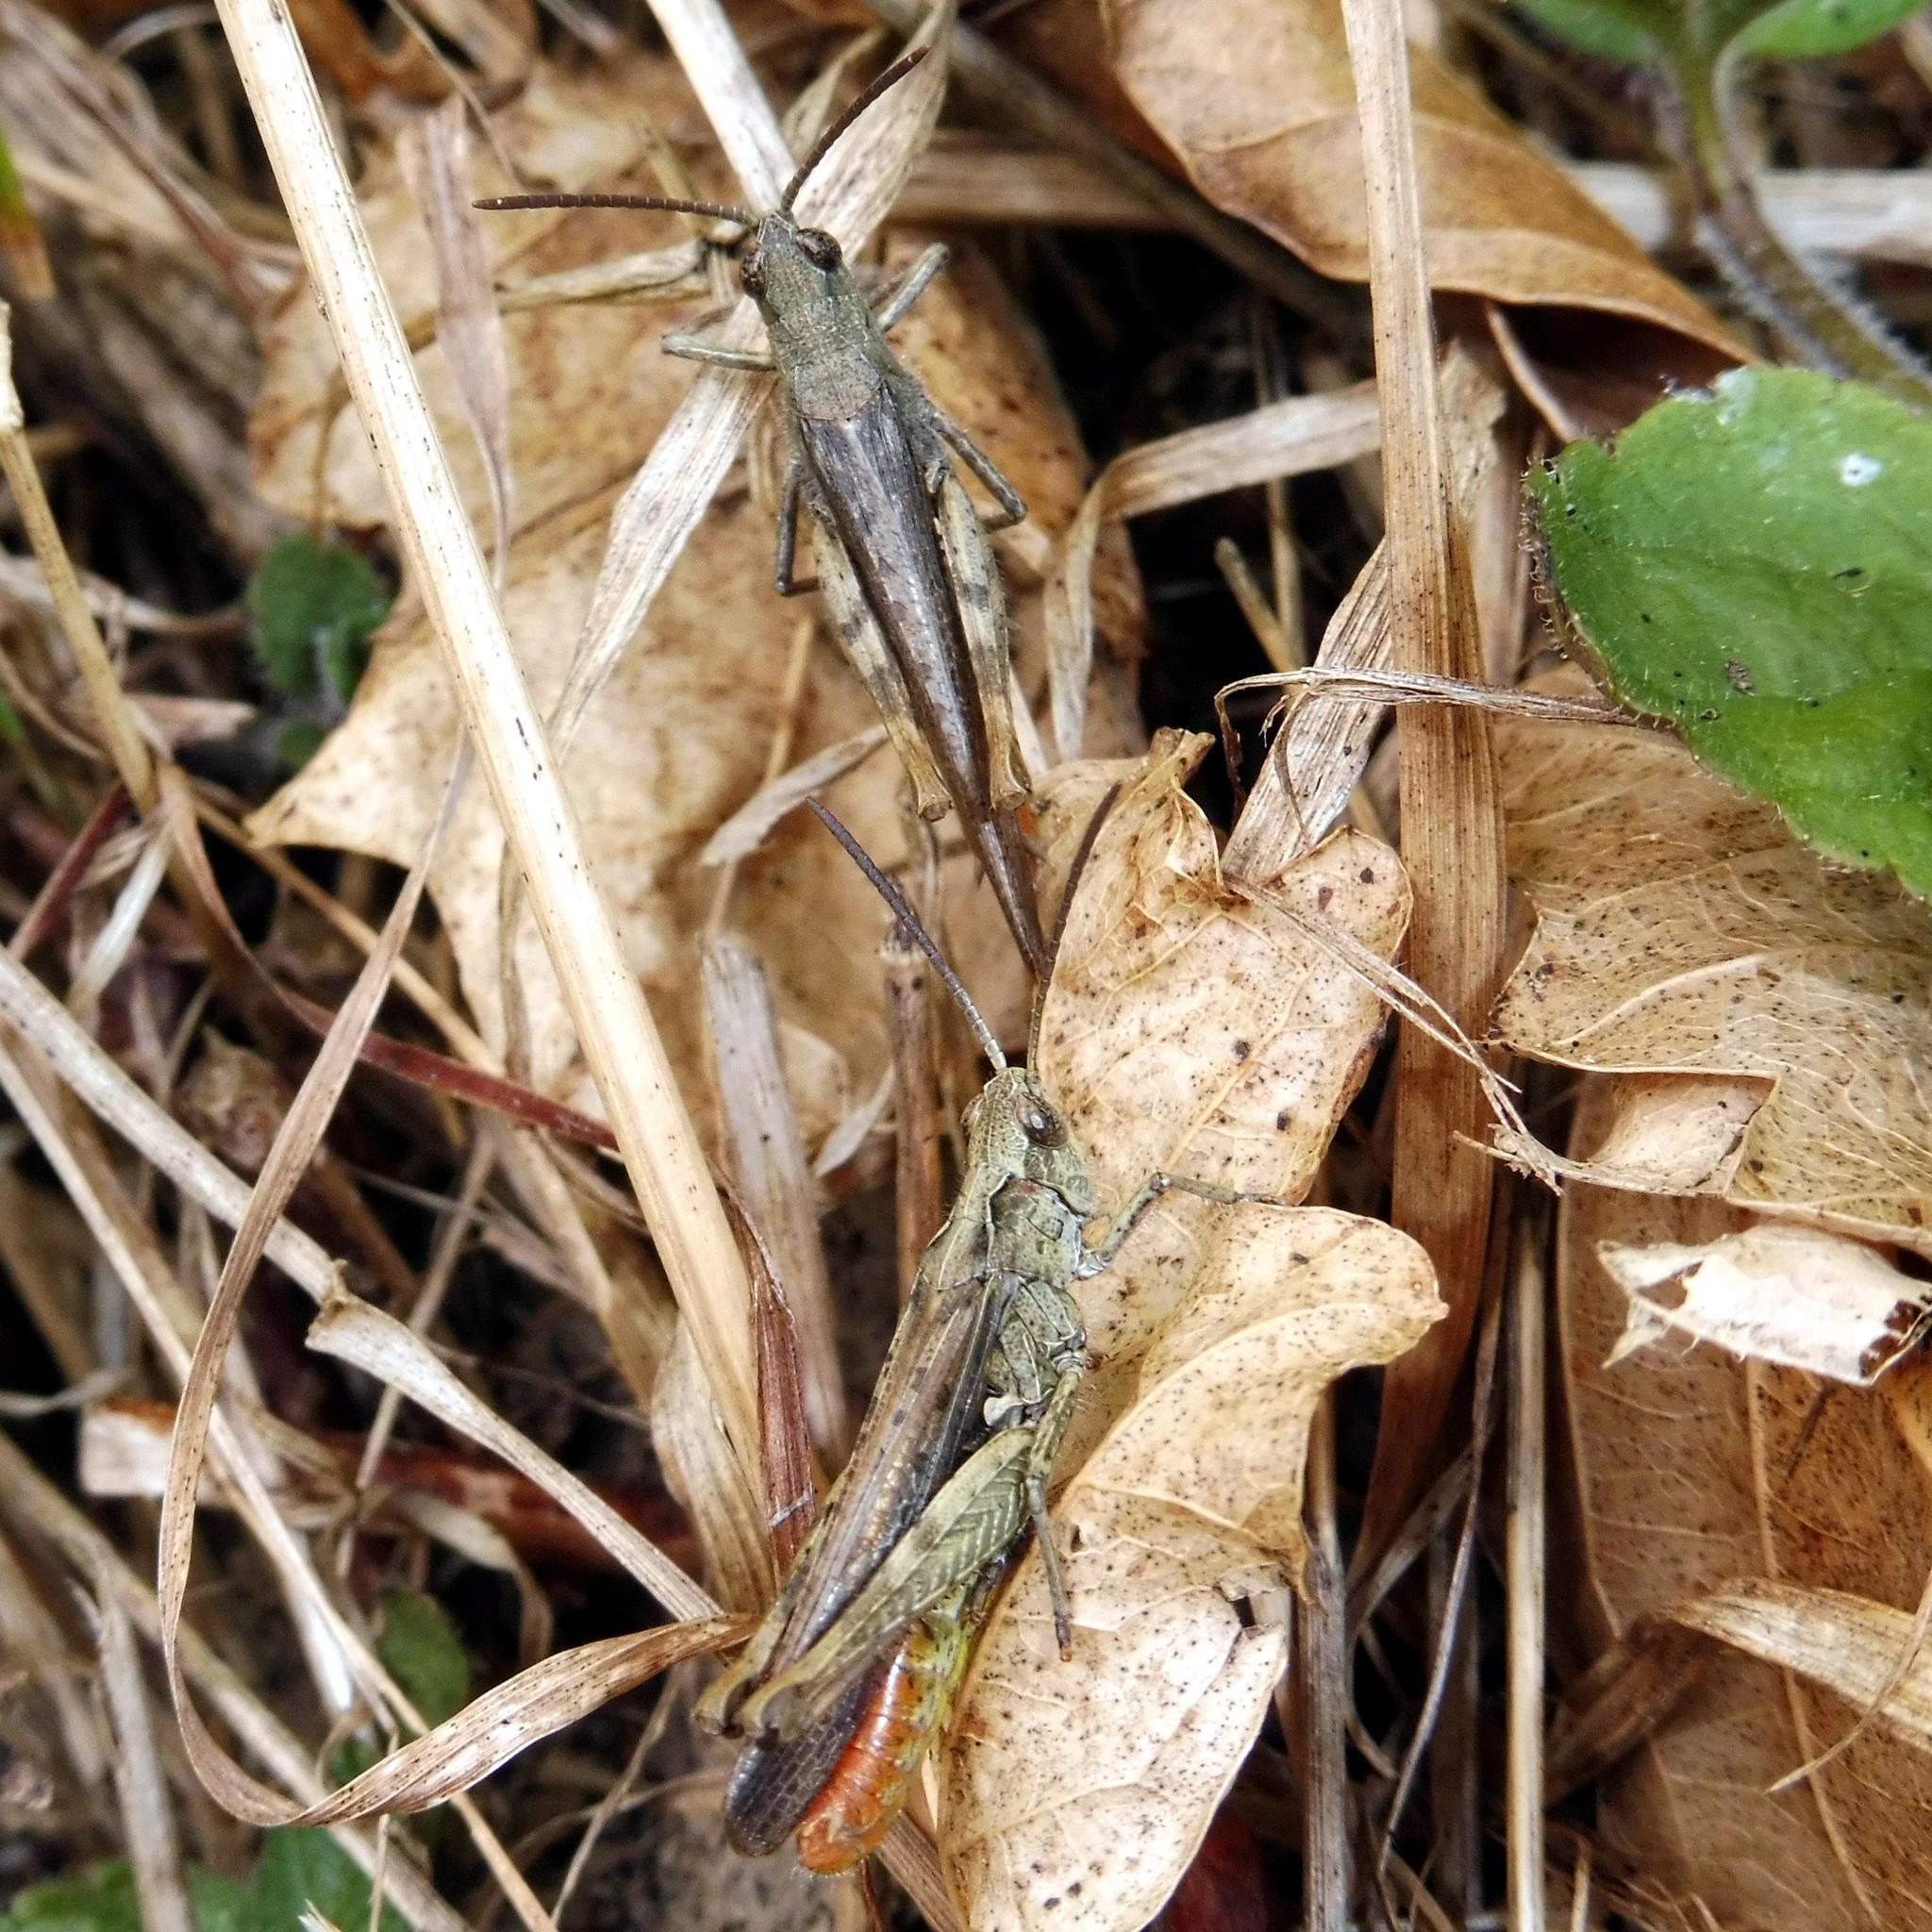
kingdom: Animalia
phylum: Arthropoda
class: Insecta
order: Orthoptera
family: Acrididae
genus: Chorthippus
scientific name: Chorthippus brunneus
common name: Field grasshopper
